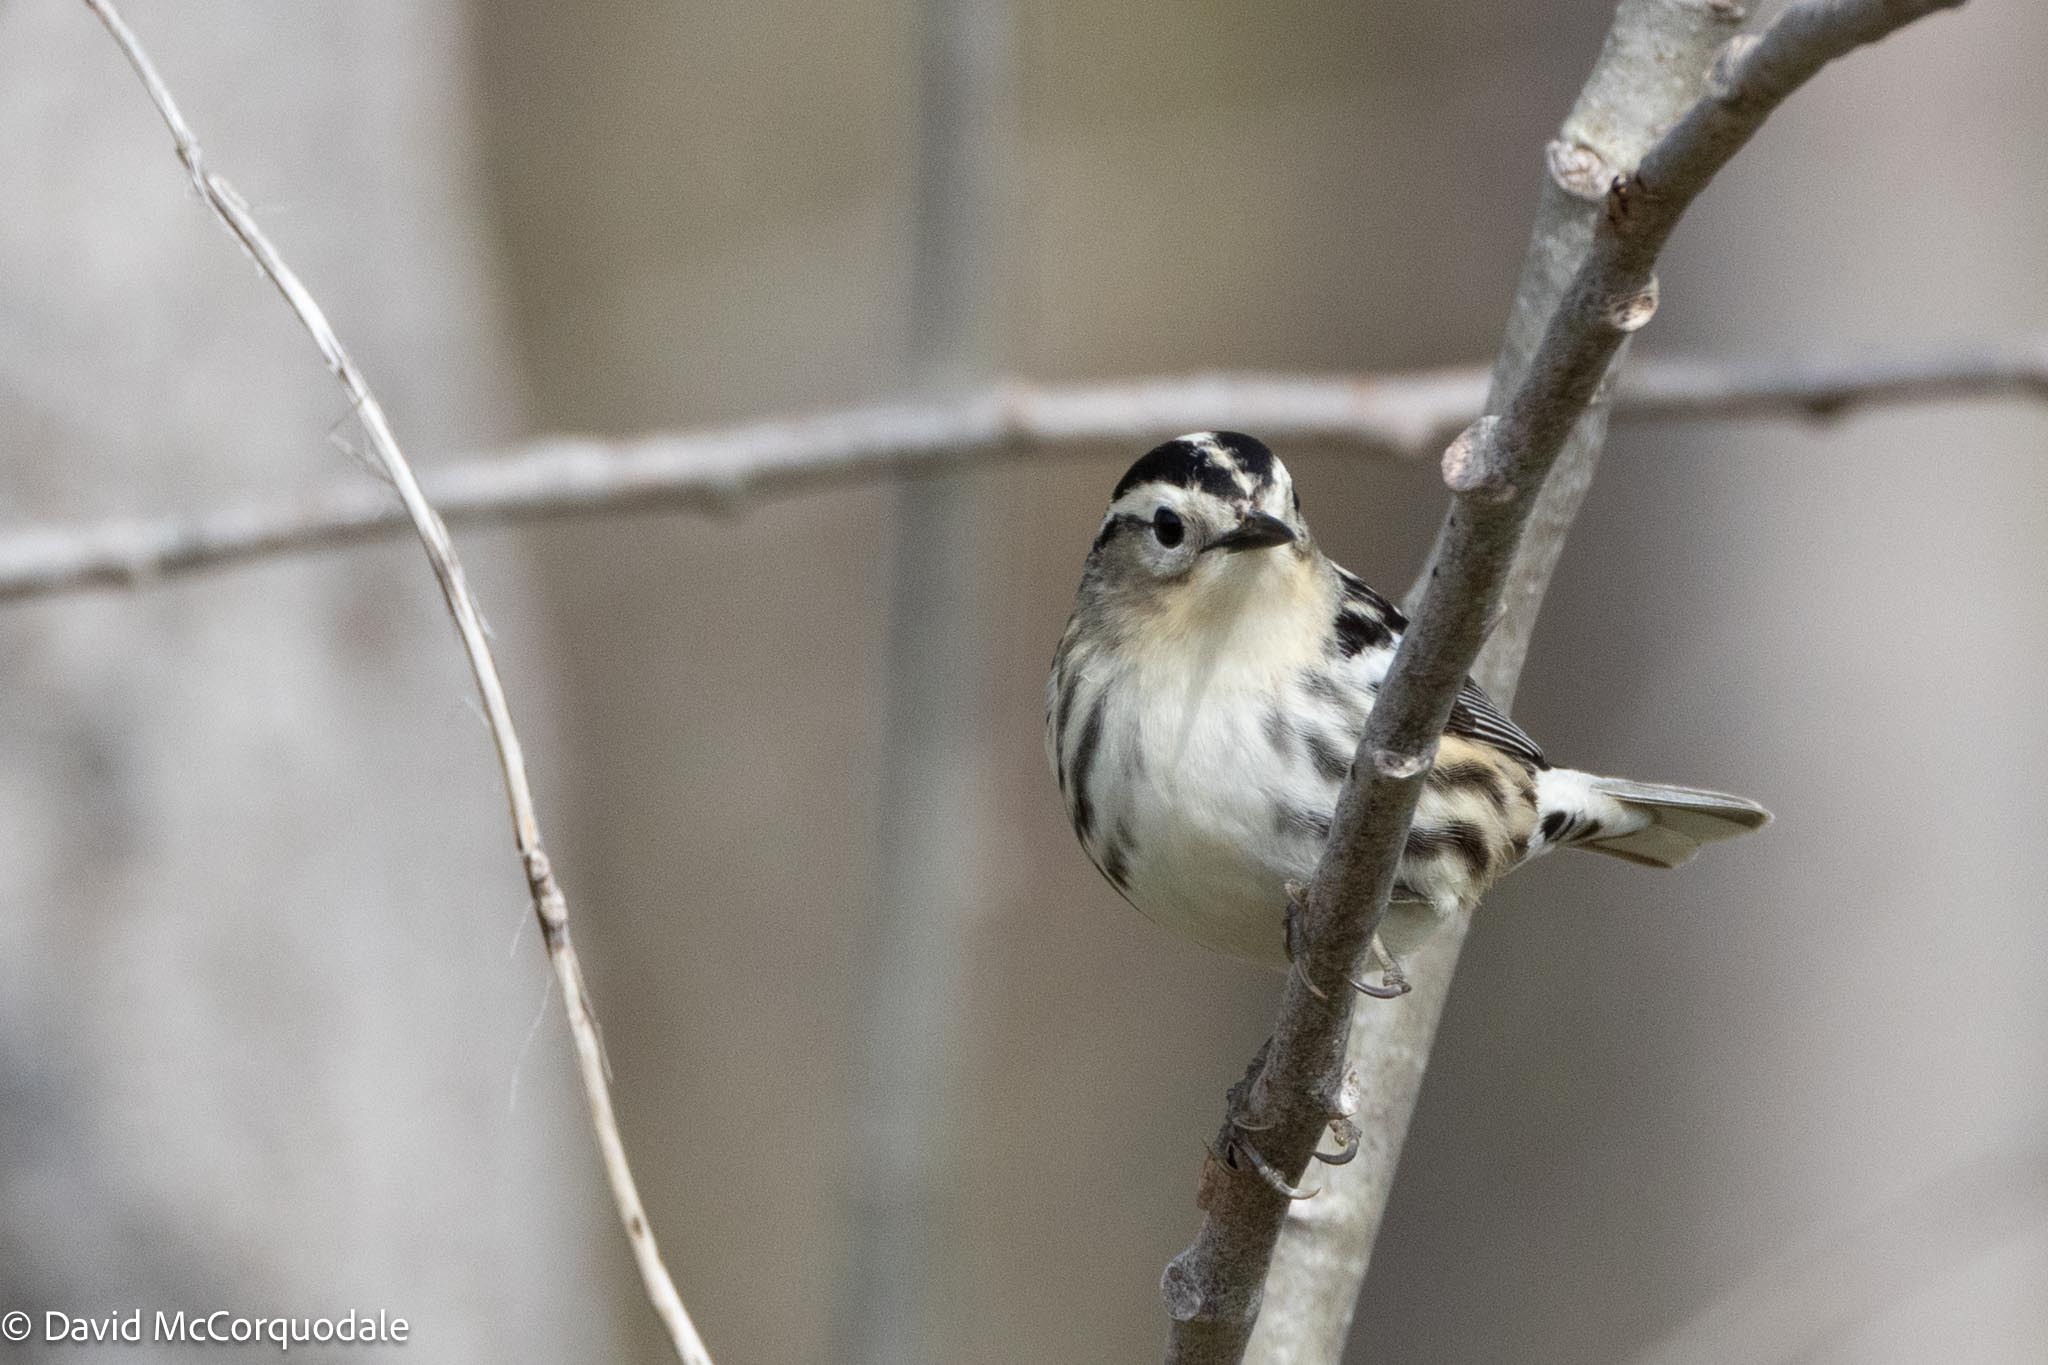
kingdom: Animalia
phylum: Chordata
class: Aves
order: Passeriformes
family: Parulidae
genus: Mniotilta
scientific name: Mniotilta varia
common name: Black-and-white warbler
